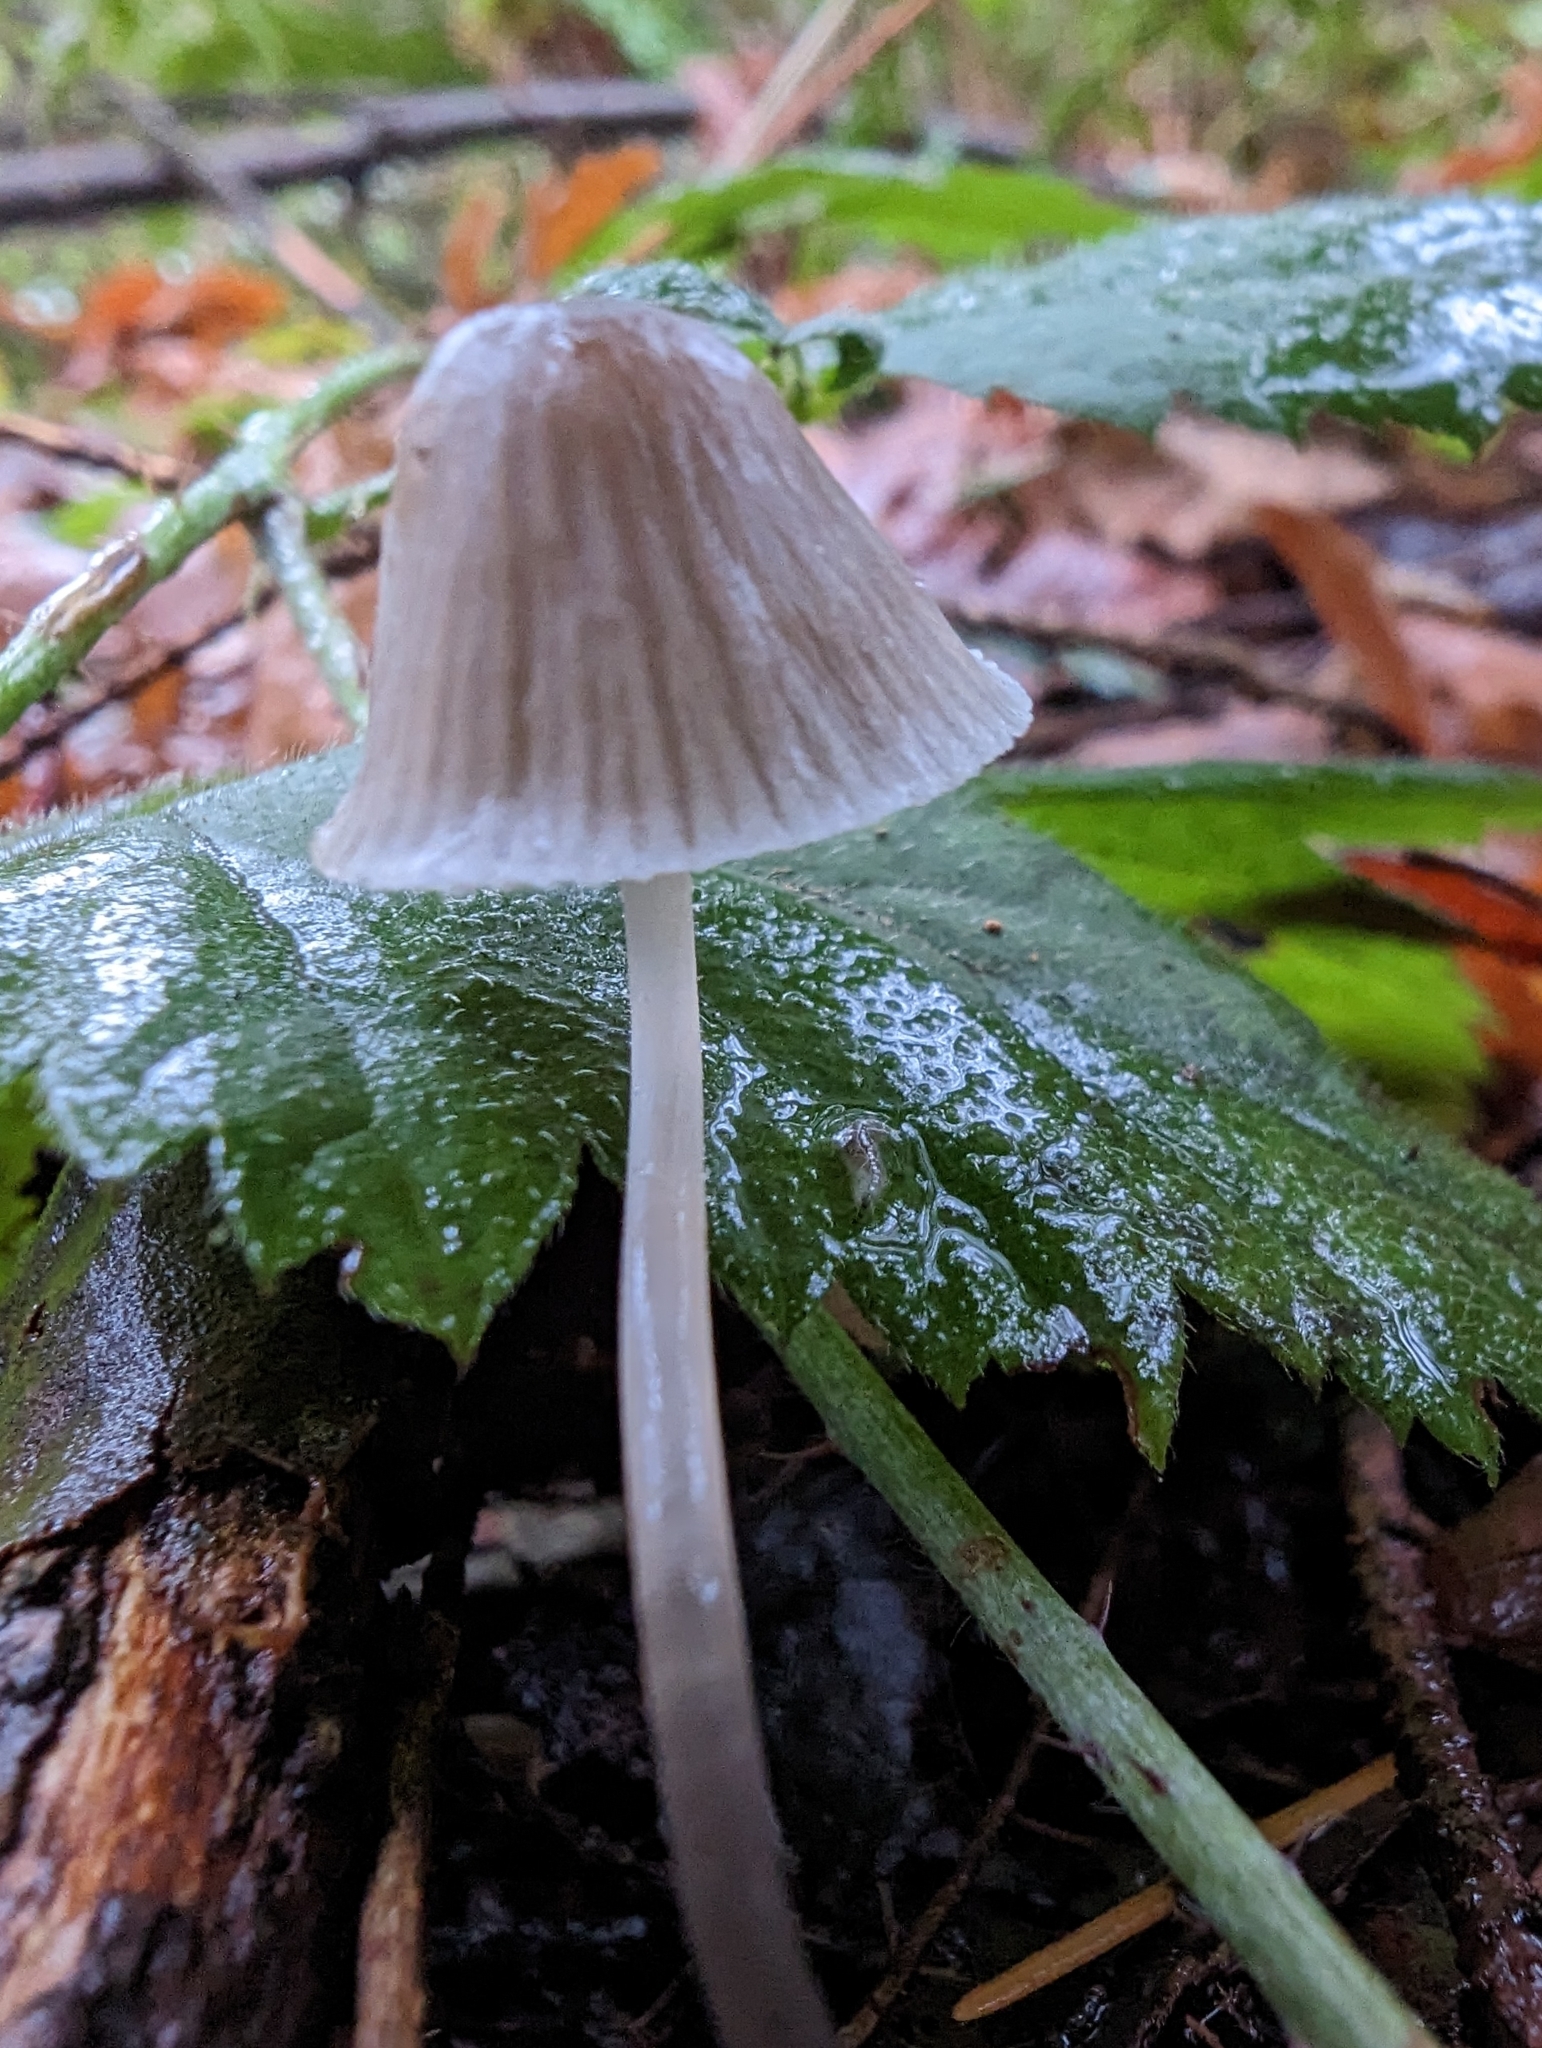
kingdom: Fungi
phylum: Basidiomycota
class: Agaricomycetes
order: Agaricales
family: Mycenaceae
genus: Mycena
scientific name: Mycena robusta
